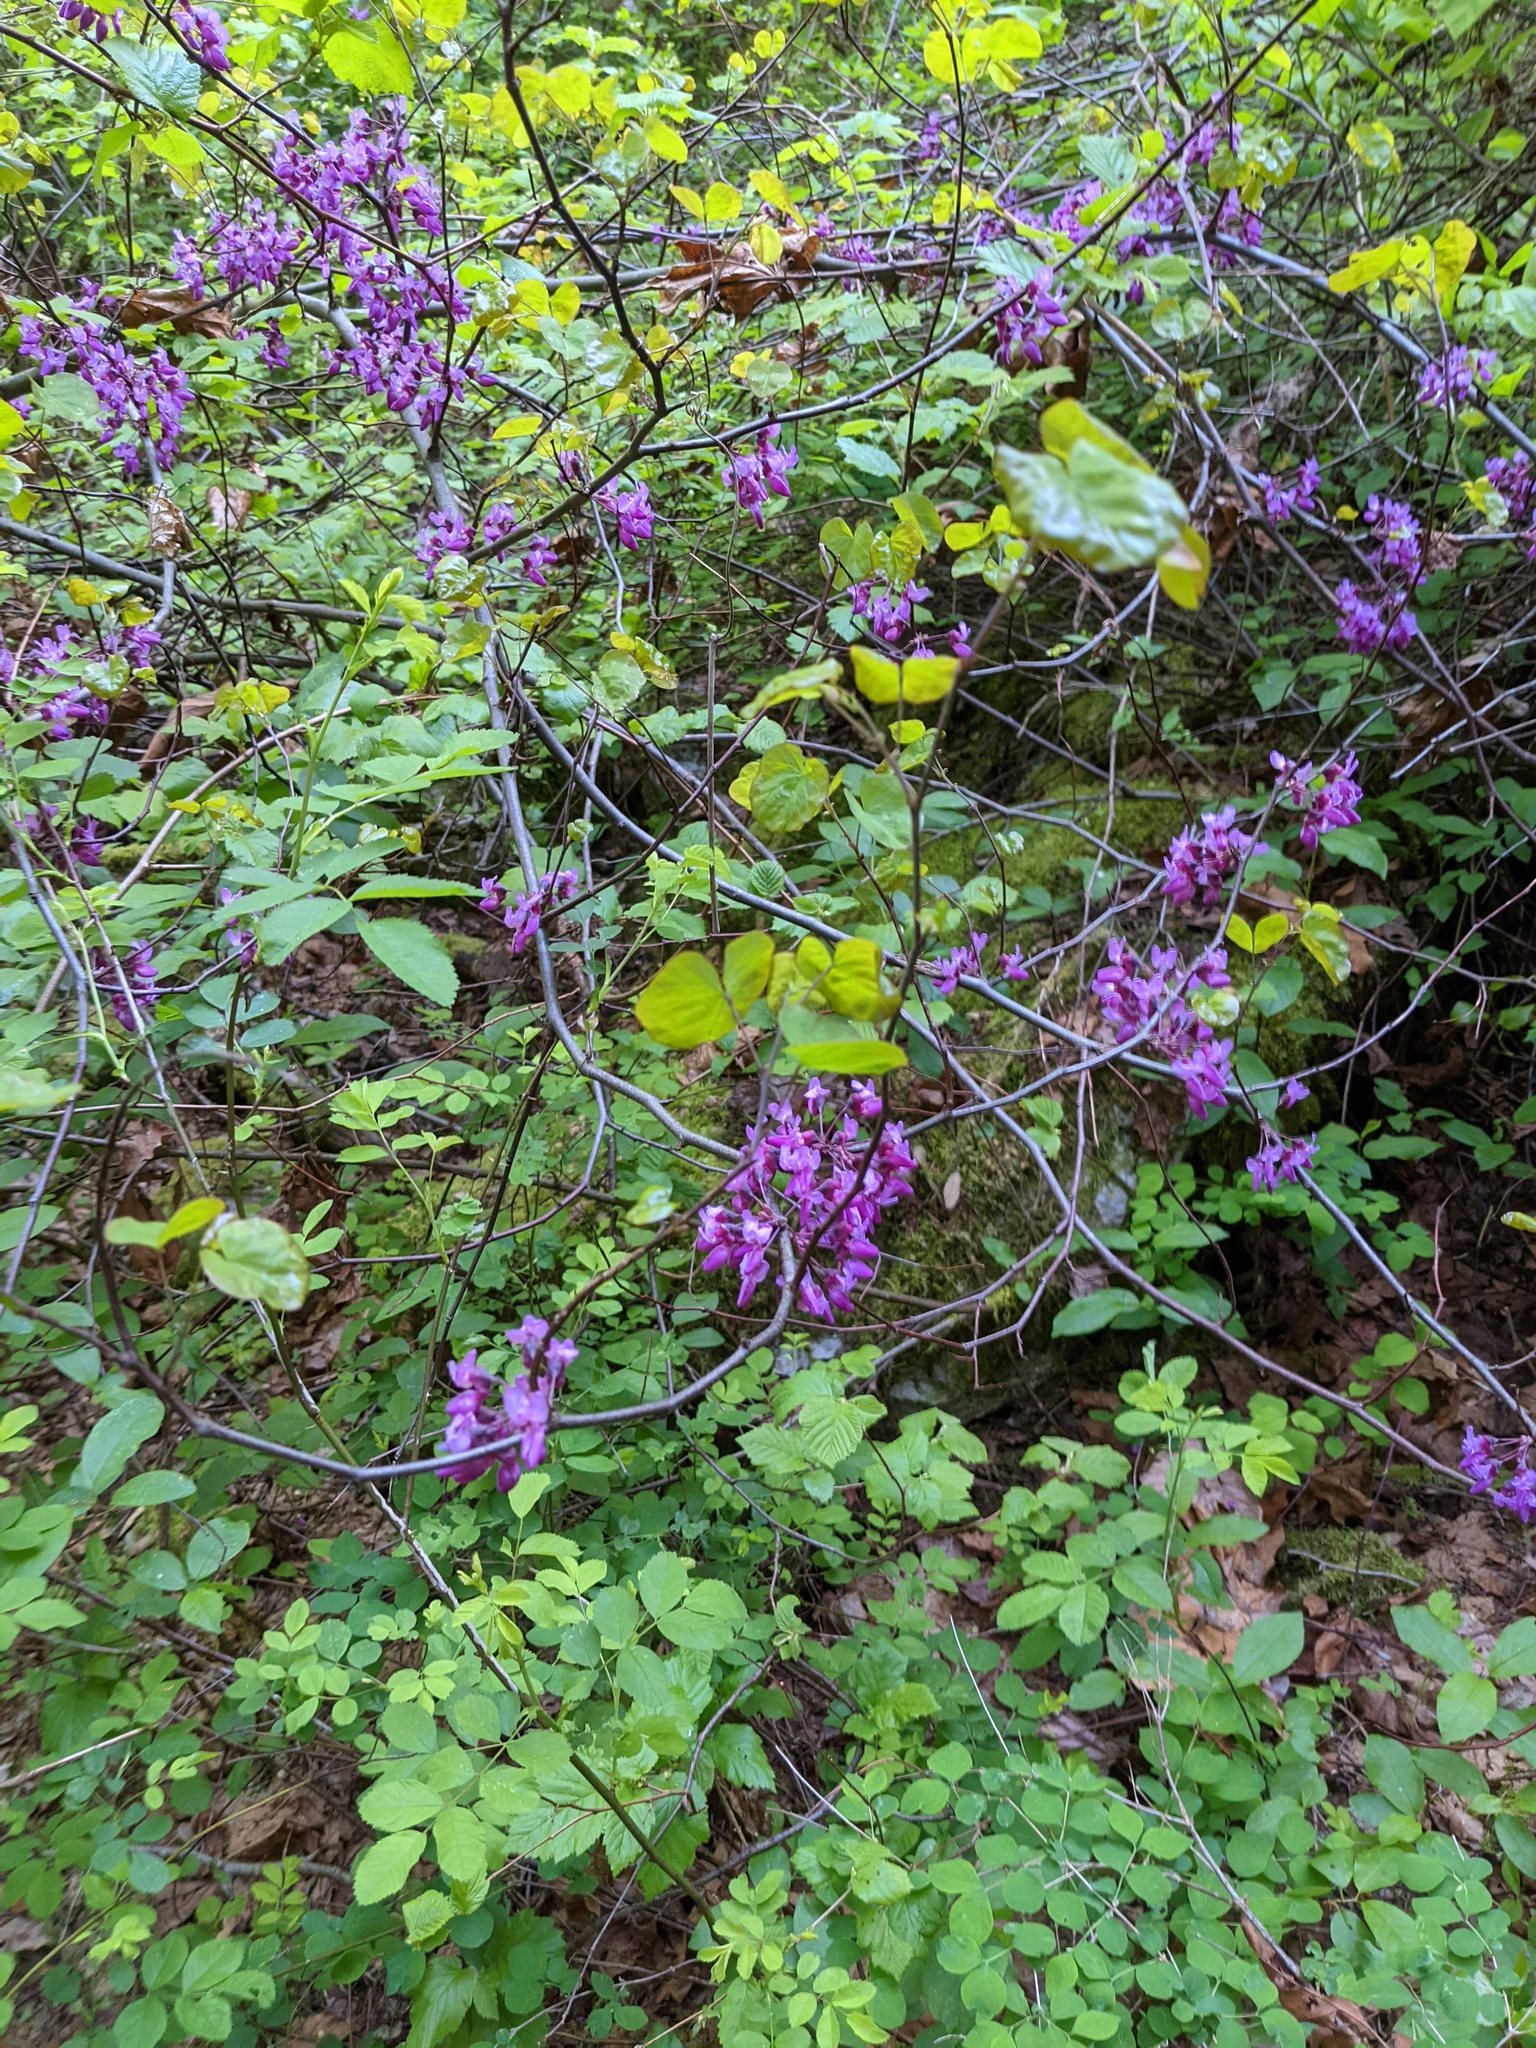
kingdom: Plantae
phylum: Tracheophyta
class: Magnoliopsida
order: Fabales
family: Fabaceae
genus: Cercis
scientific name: Cercis occidentalis
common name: California redbud
